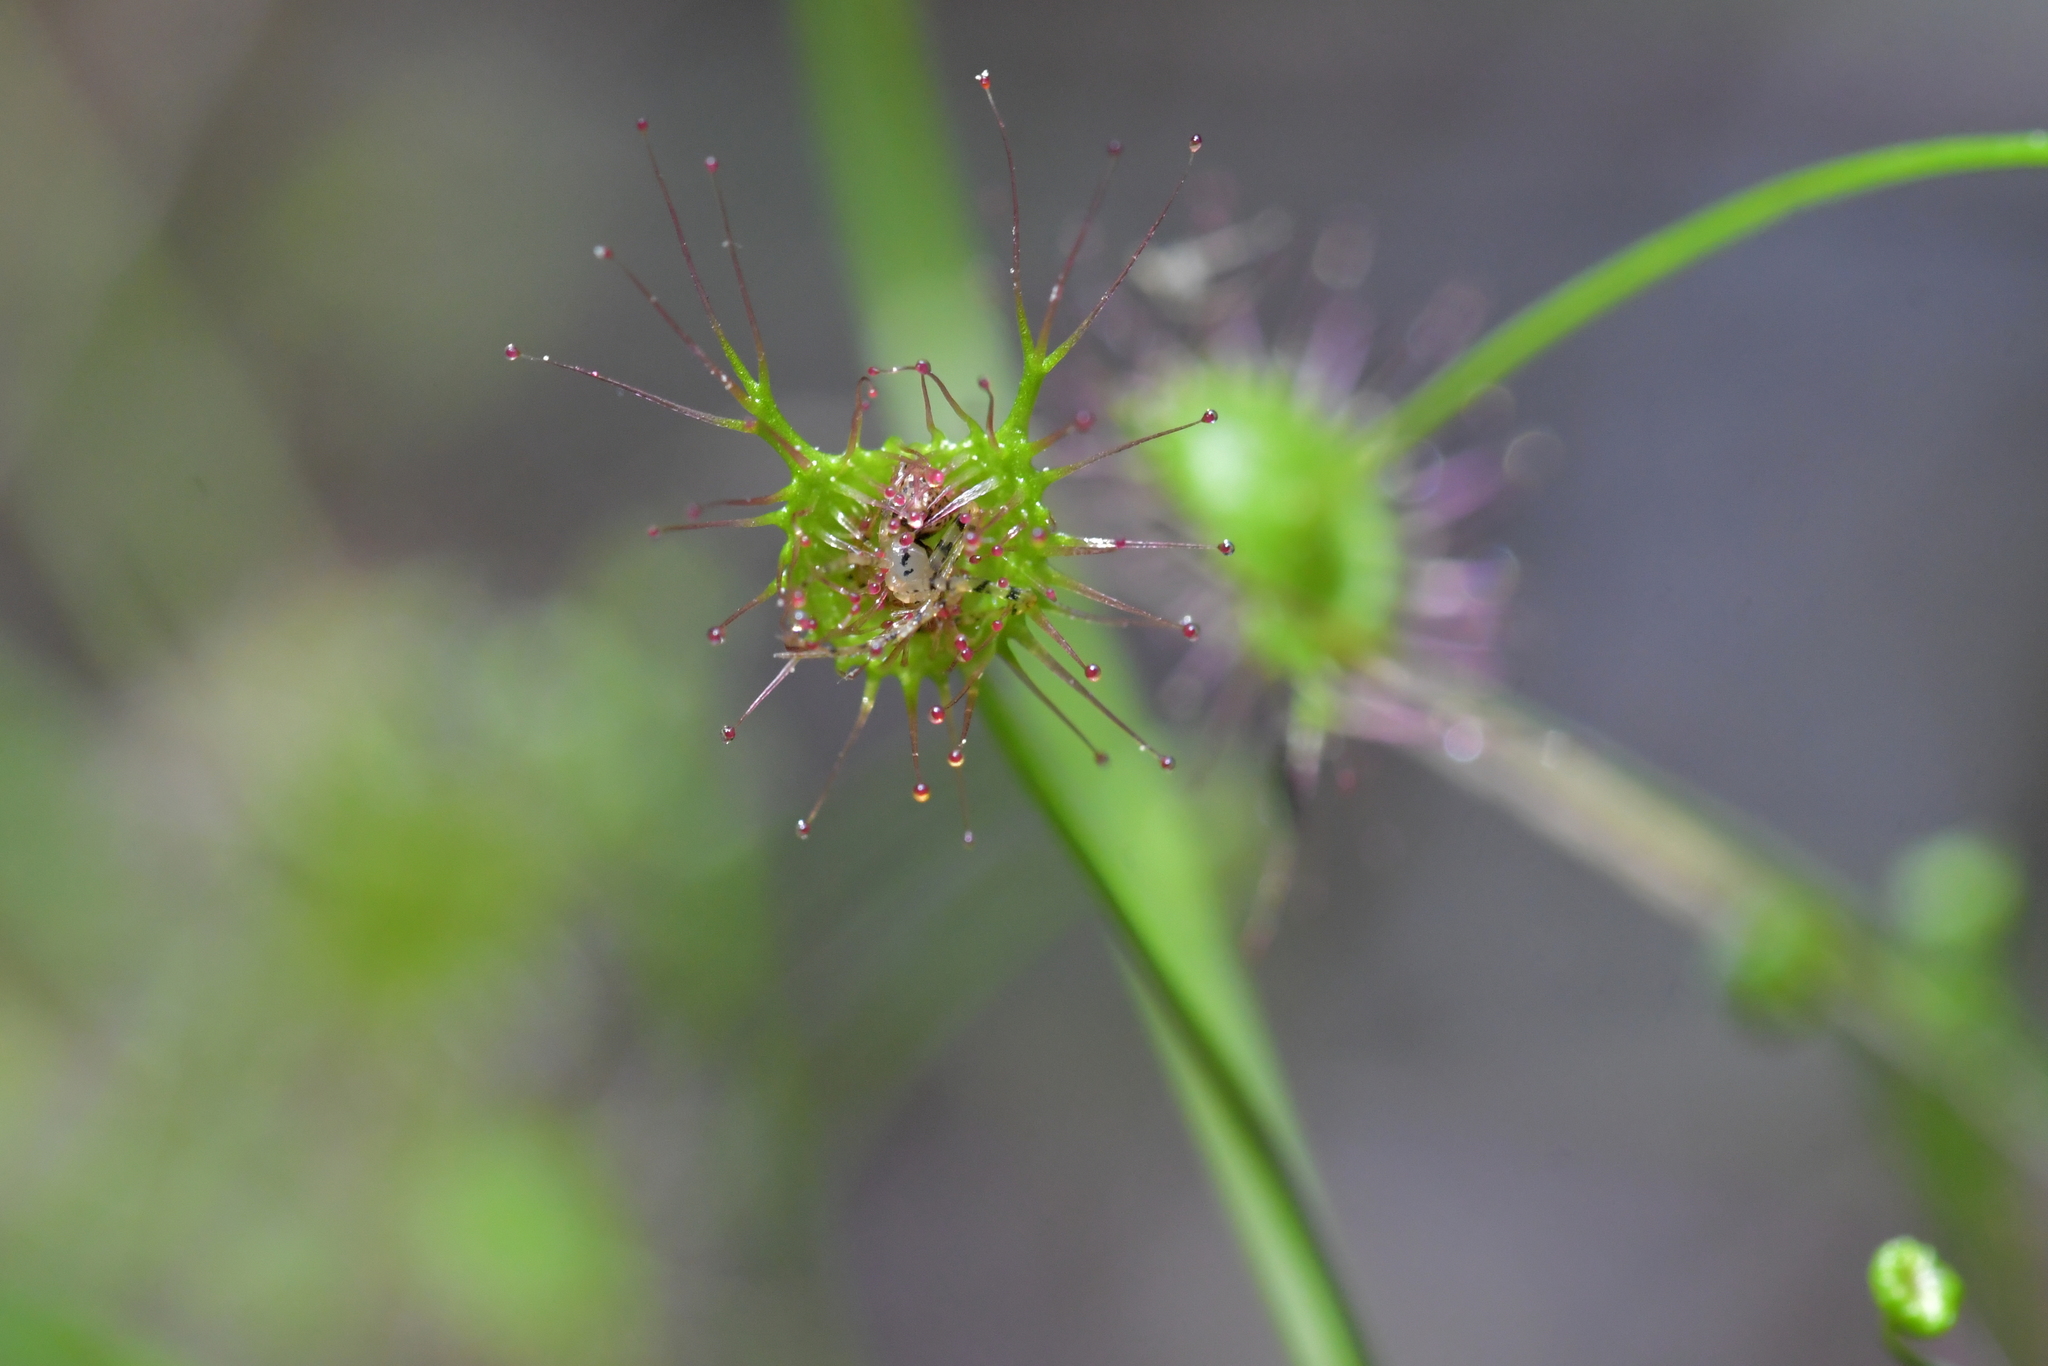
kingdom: Plantae
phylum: Tracheophyta
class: Magnoliopsida
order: Caryophyllales
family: Droseraceae
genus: Drosera
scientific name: Drosera peltata
